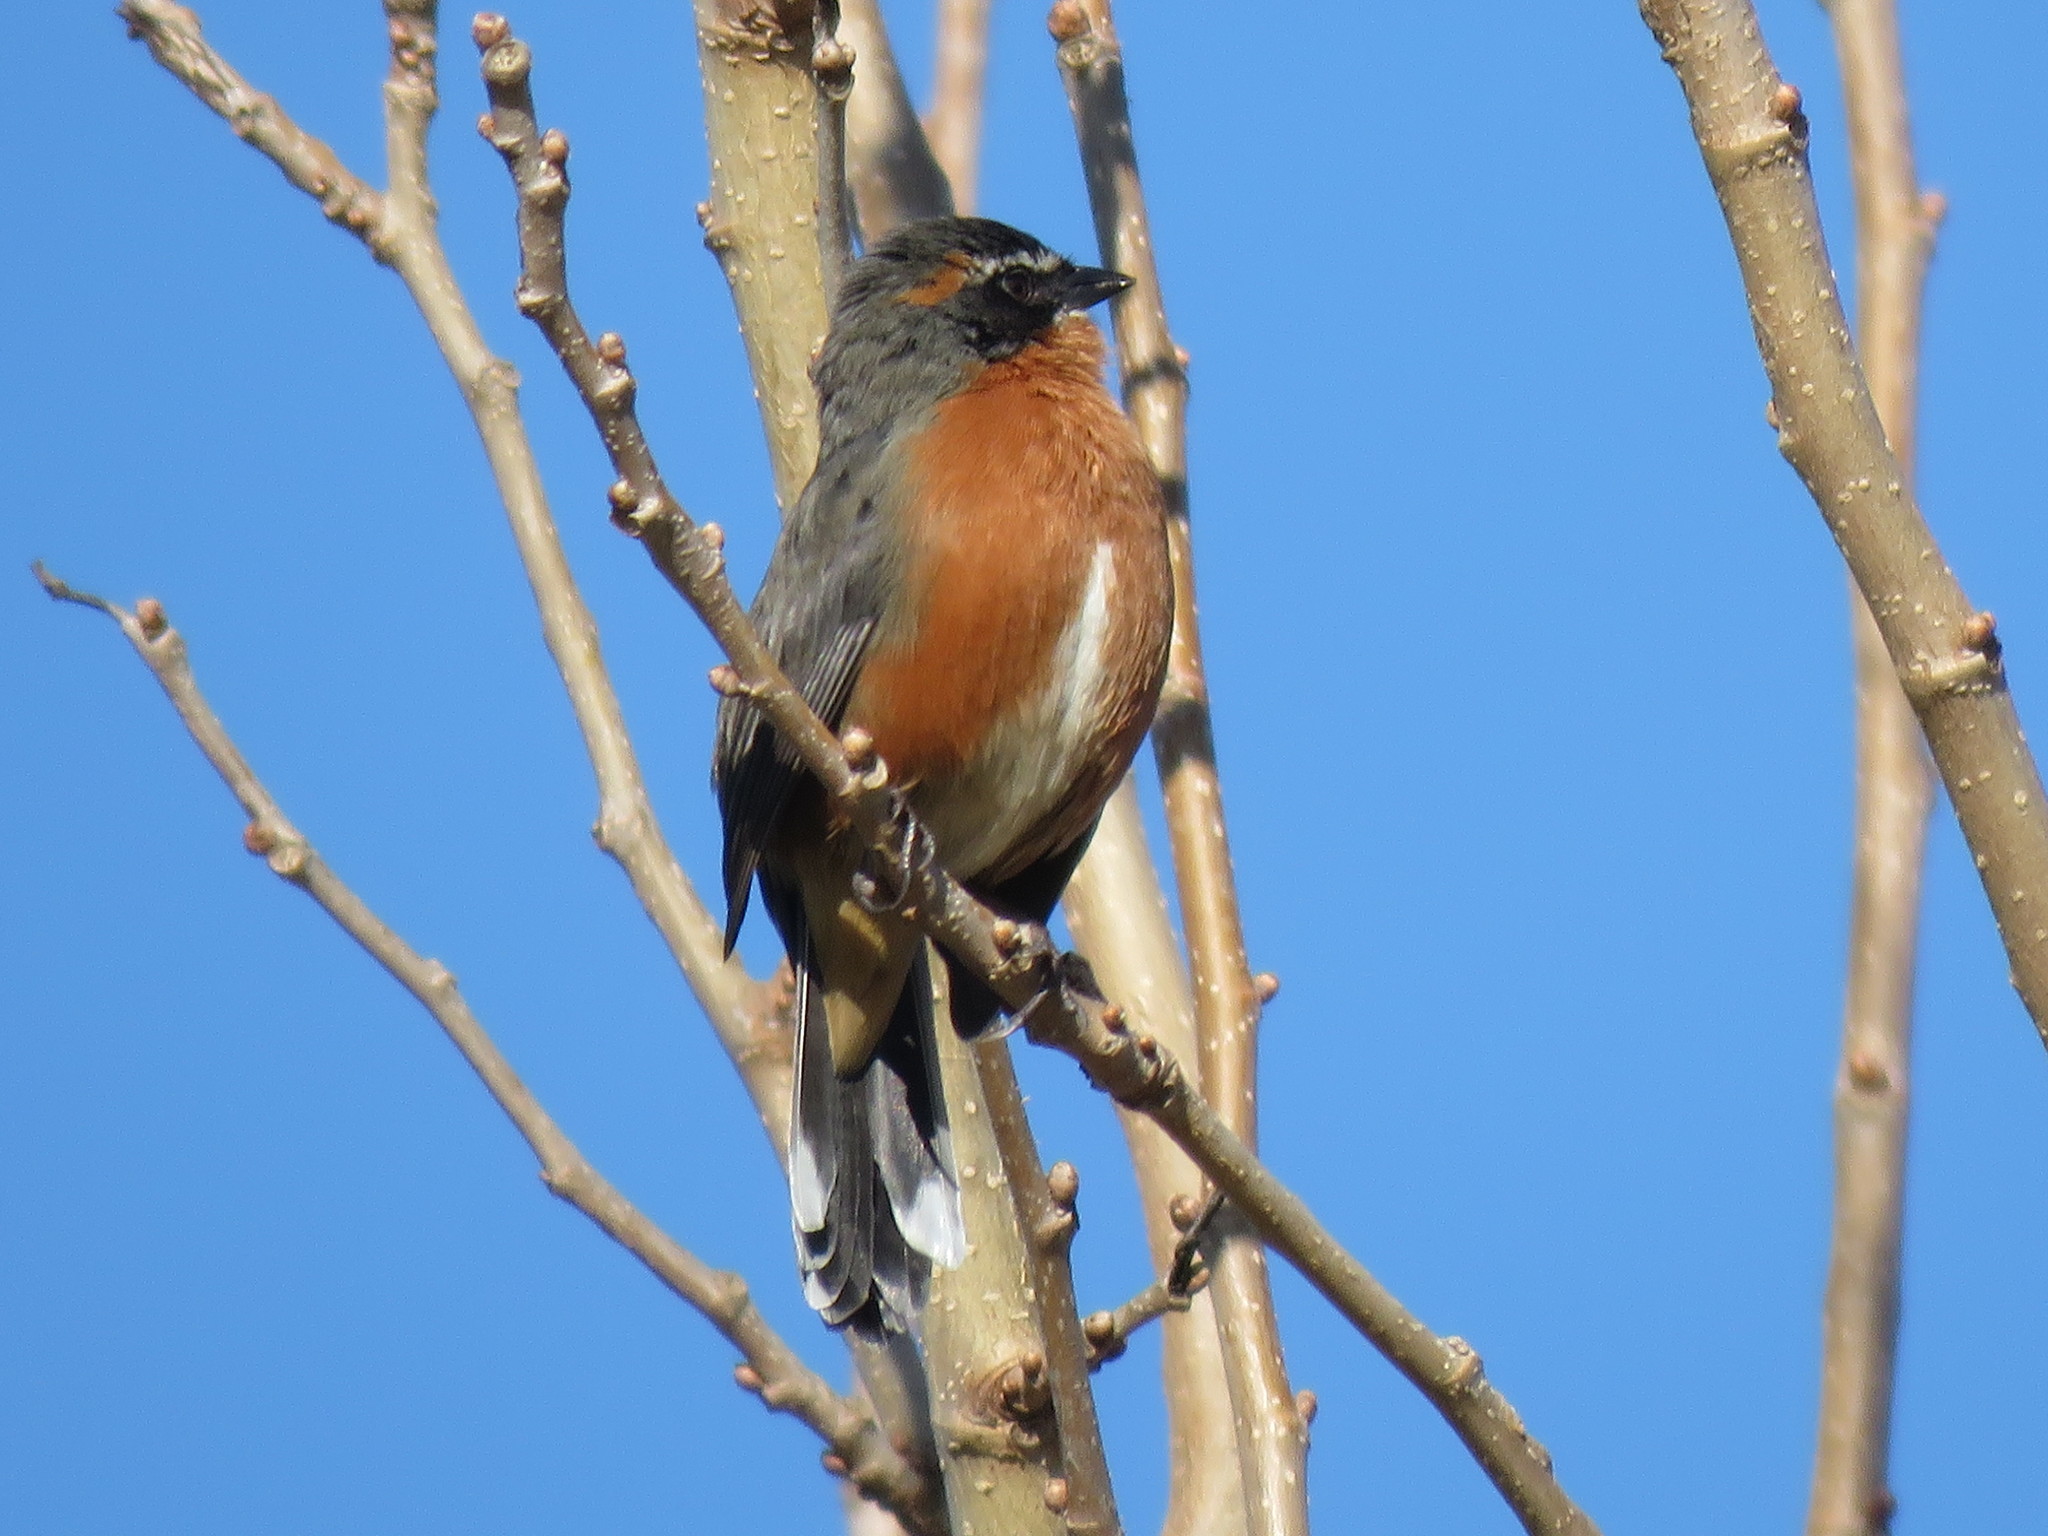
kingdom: Animalia
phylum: Chordata
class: Aves
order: Passeriformes
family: Thraupidae
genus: Poospiza
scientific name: Poospiza nigrorufa
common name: Black-and-rufous warbling finch
